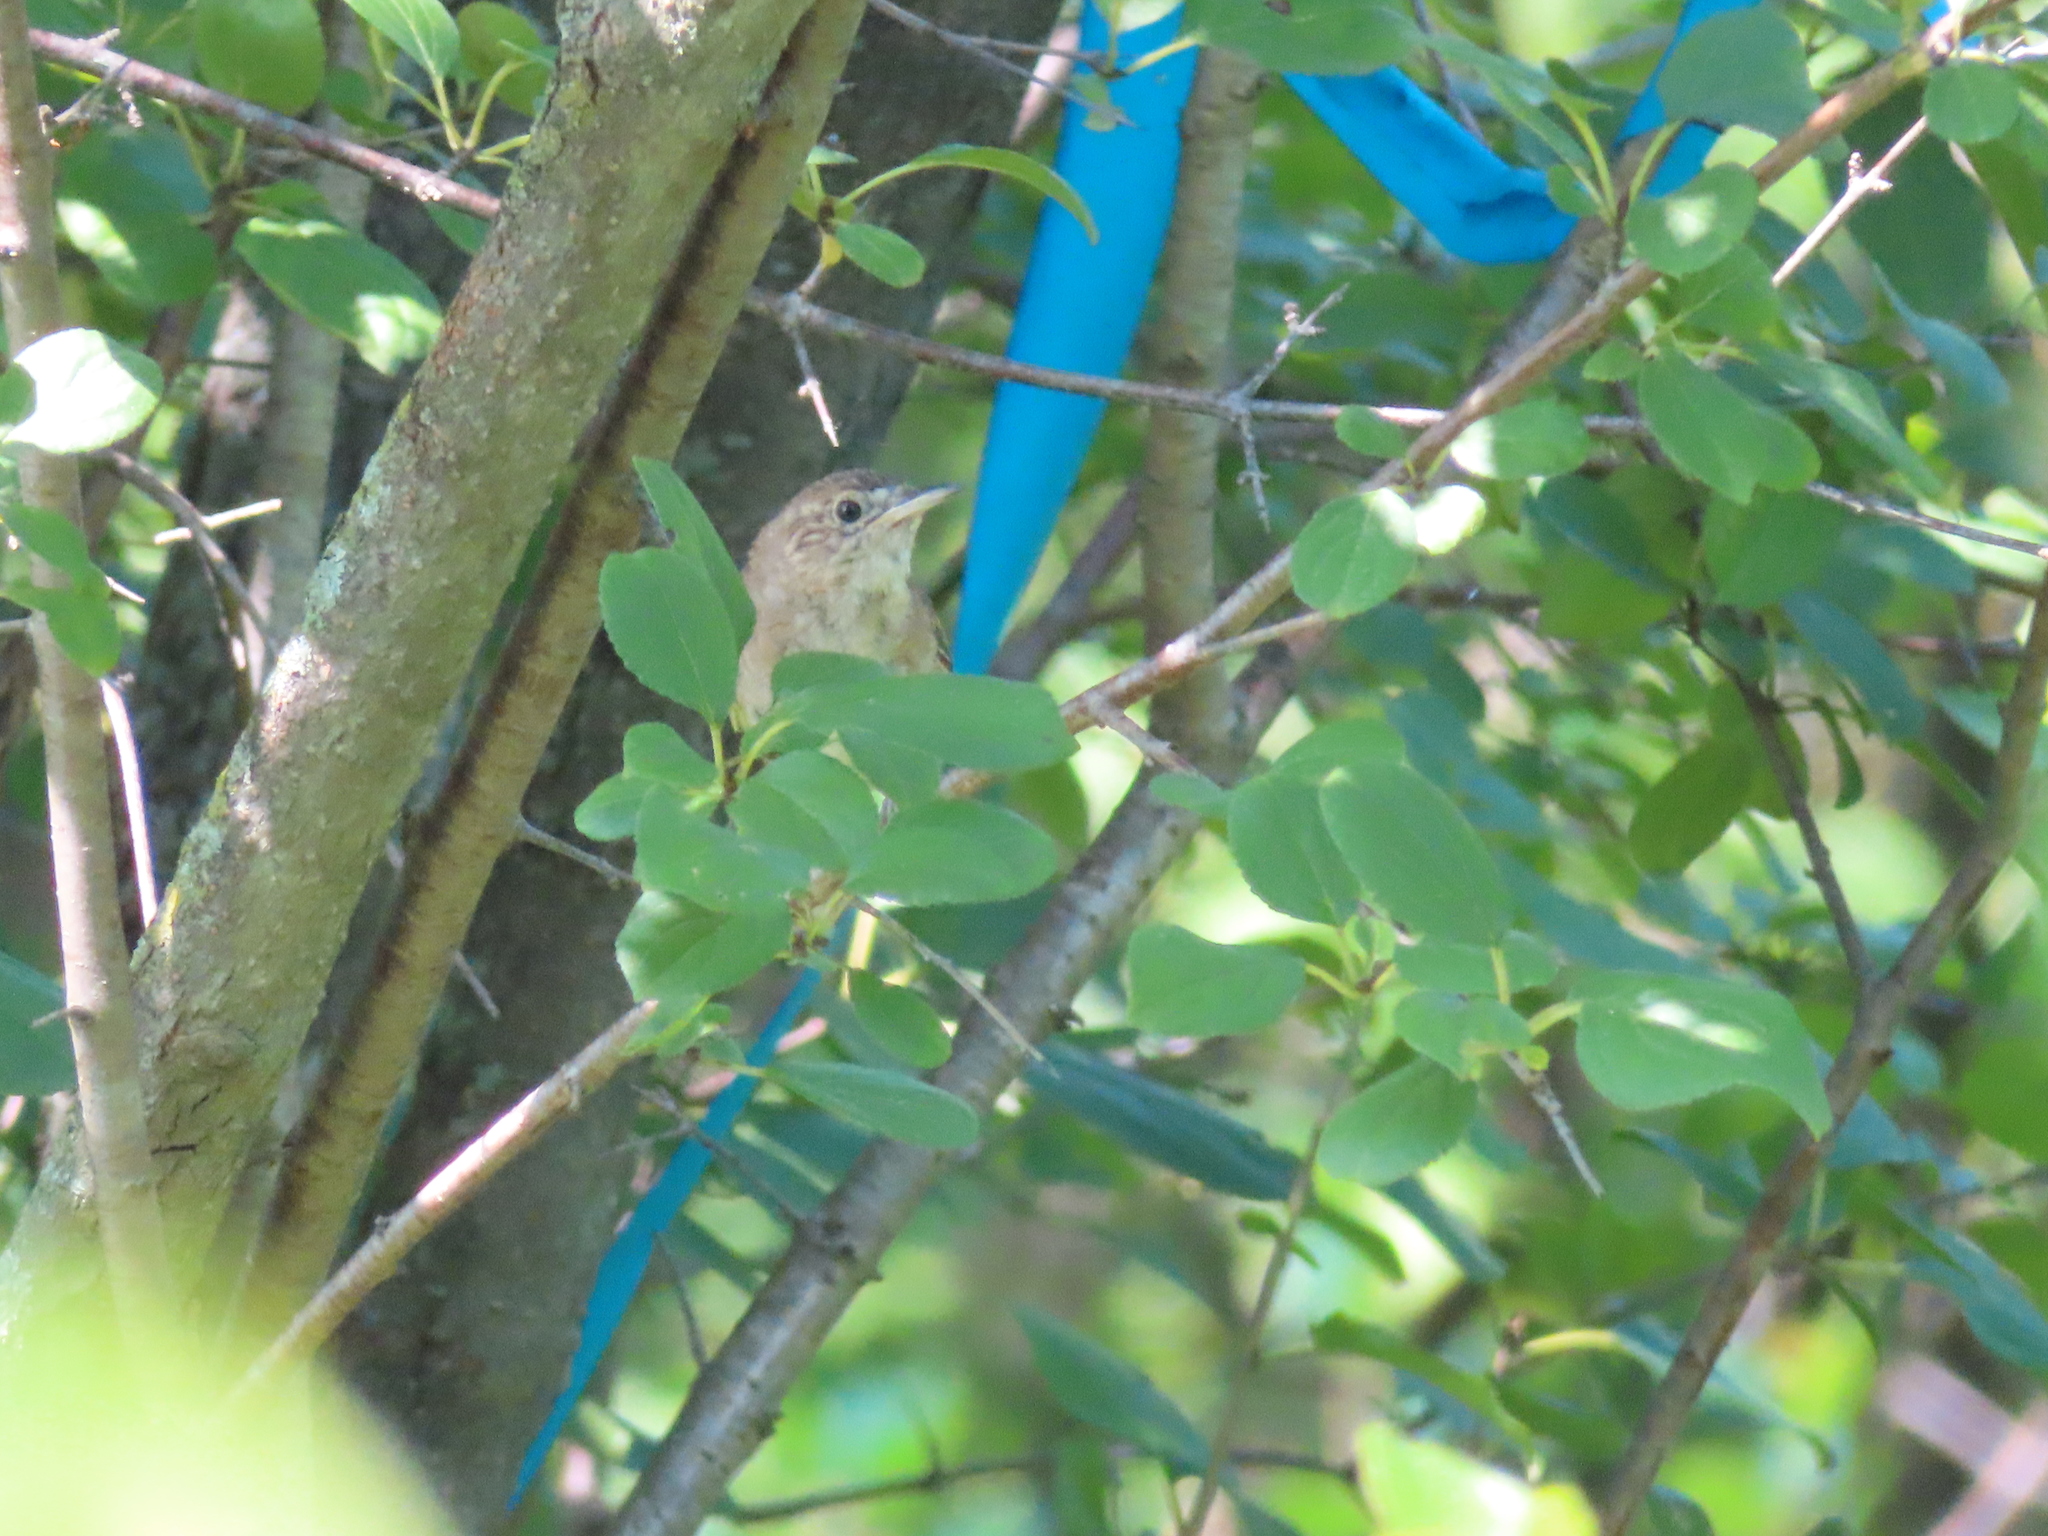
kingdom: Animalia
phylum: Chordata
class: Aves
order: Passeriformes
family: Troglodytidae
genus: Troglodytes
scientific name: Troglodytes aedon
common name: House wren
